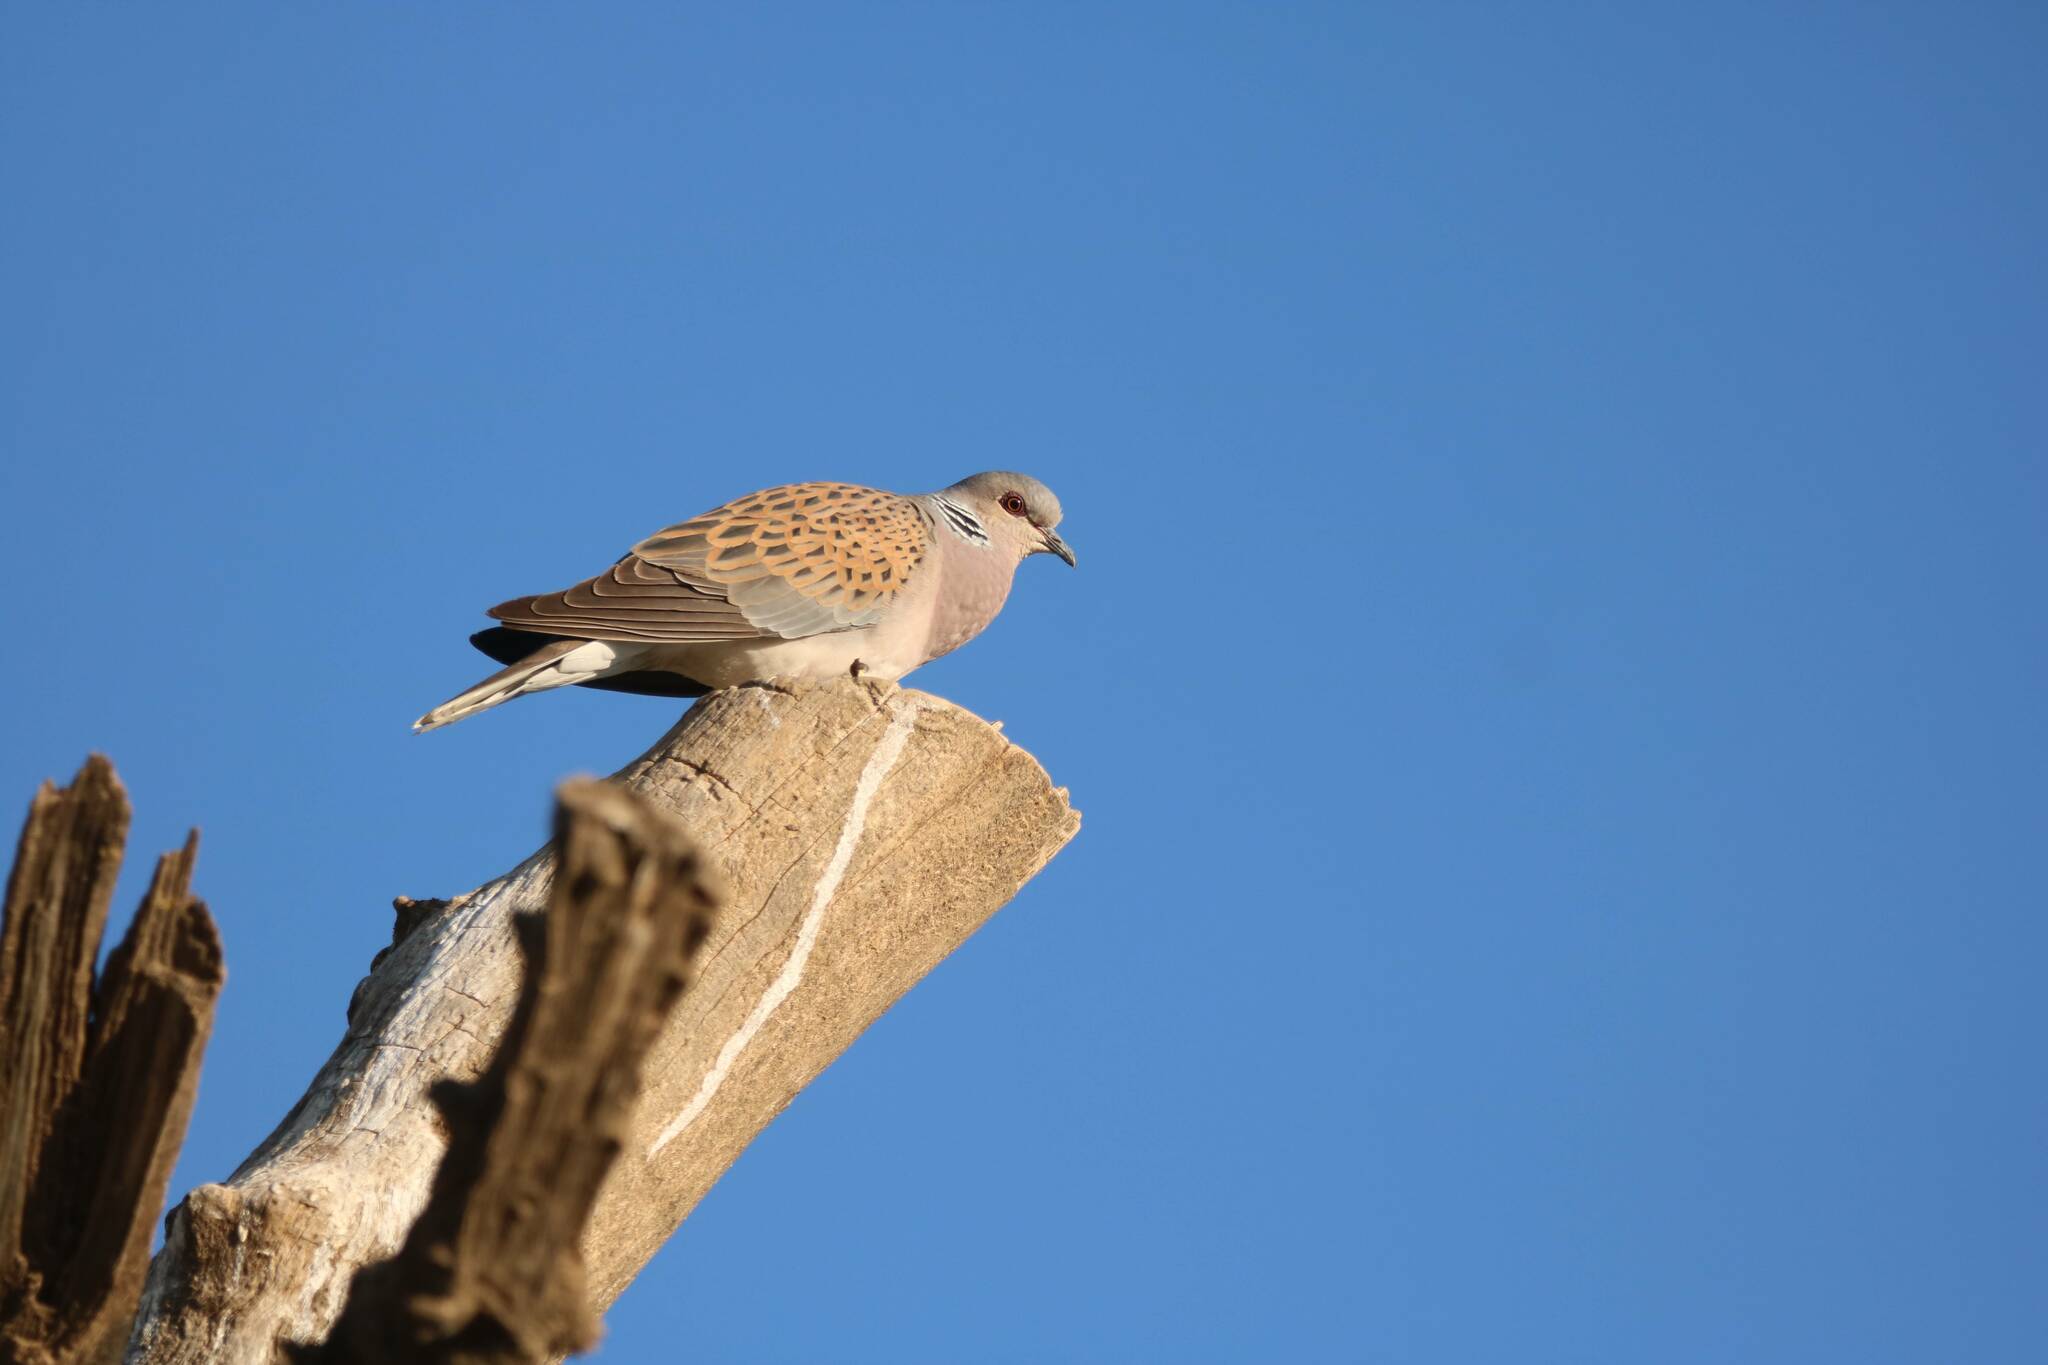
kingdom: Animalia
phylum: Chordata
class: Aves
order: Columbiformes
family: Columbidae
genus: Streptopelia
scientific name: Streptopelia turtur
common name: European turtle dove
